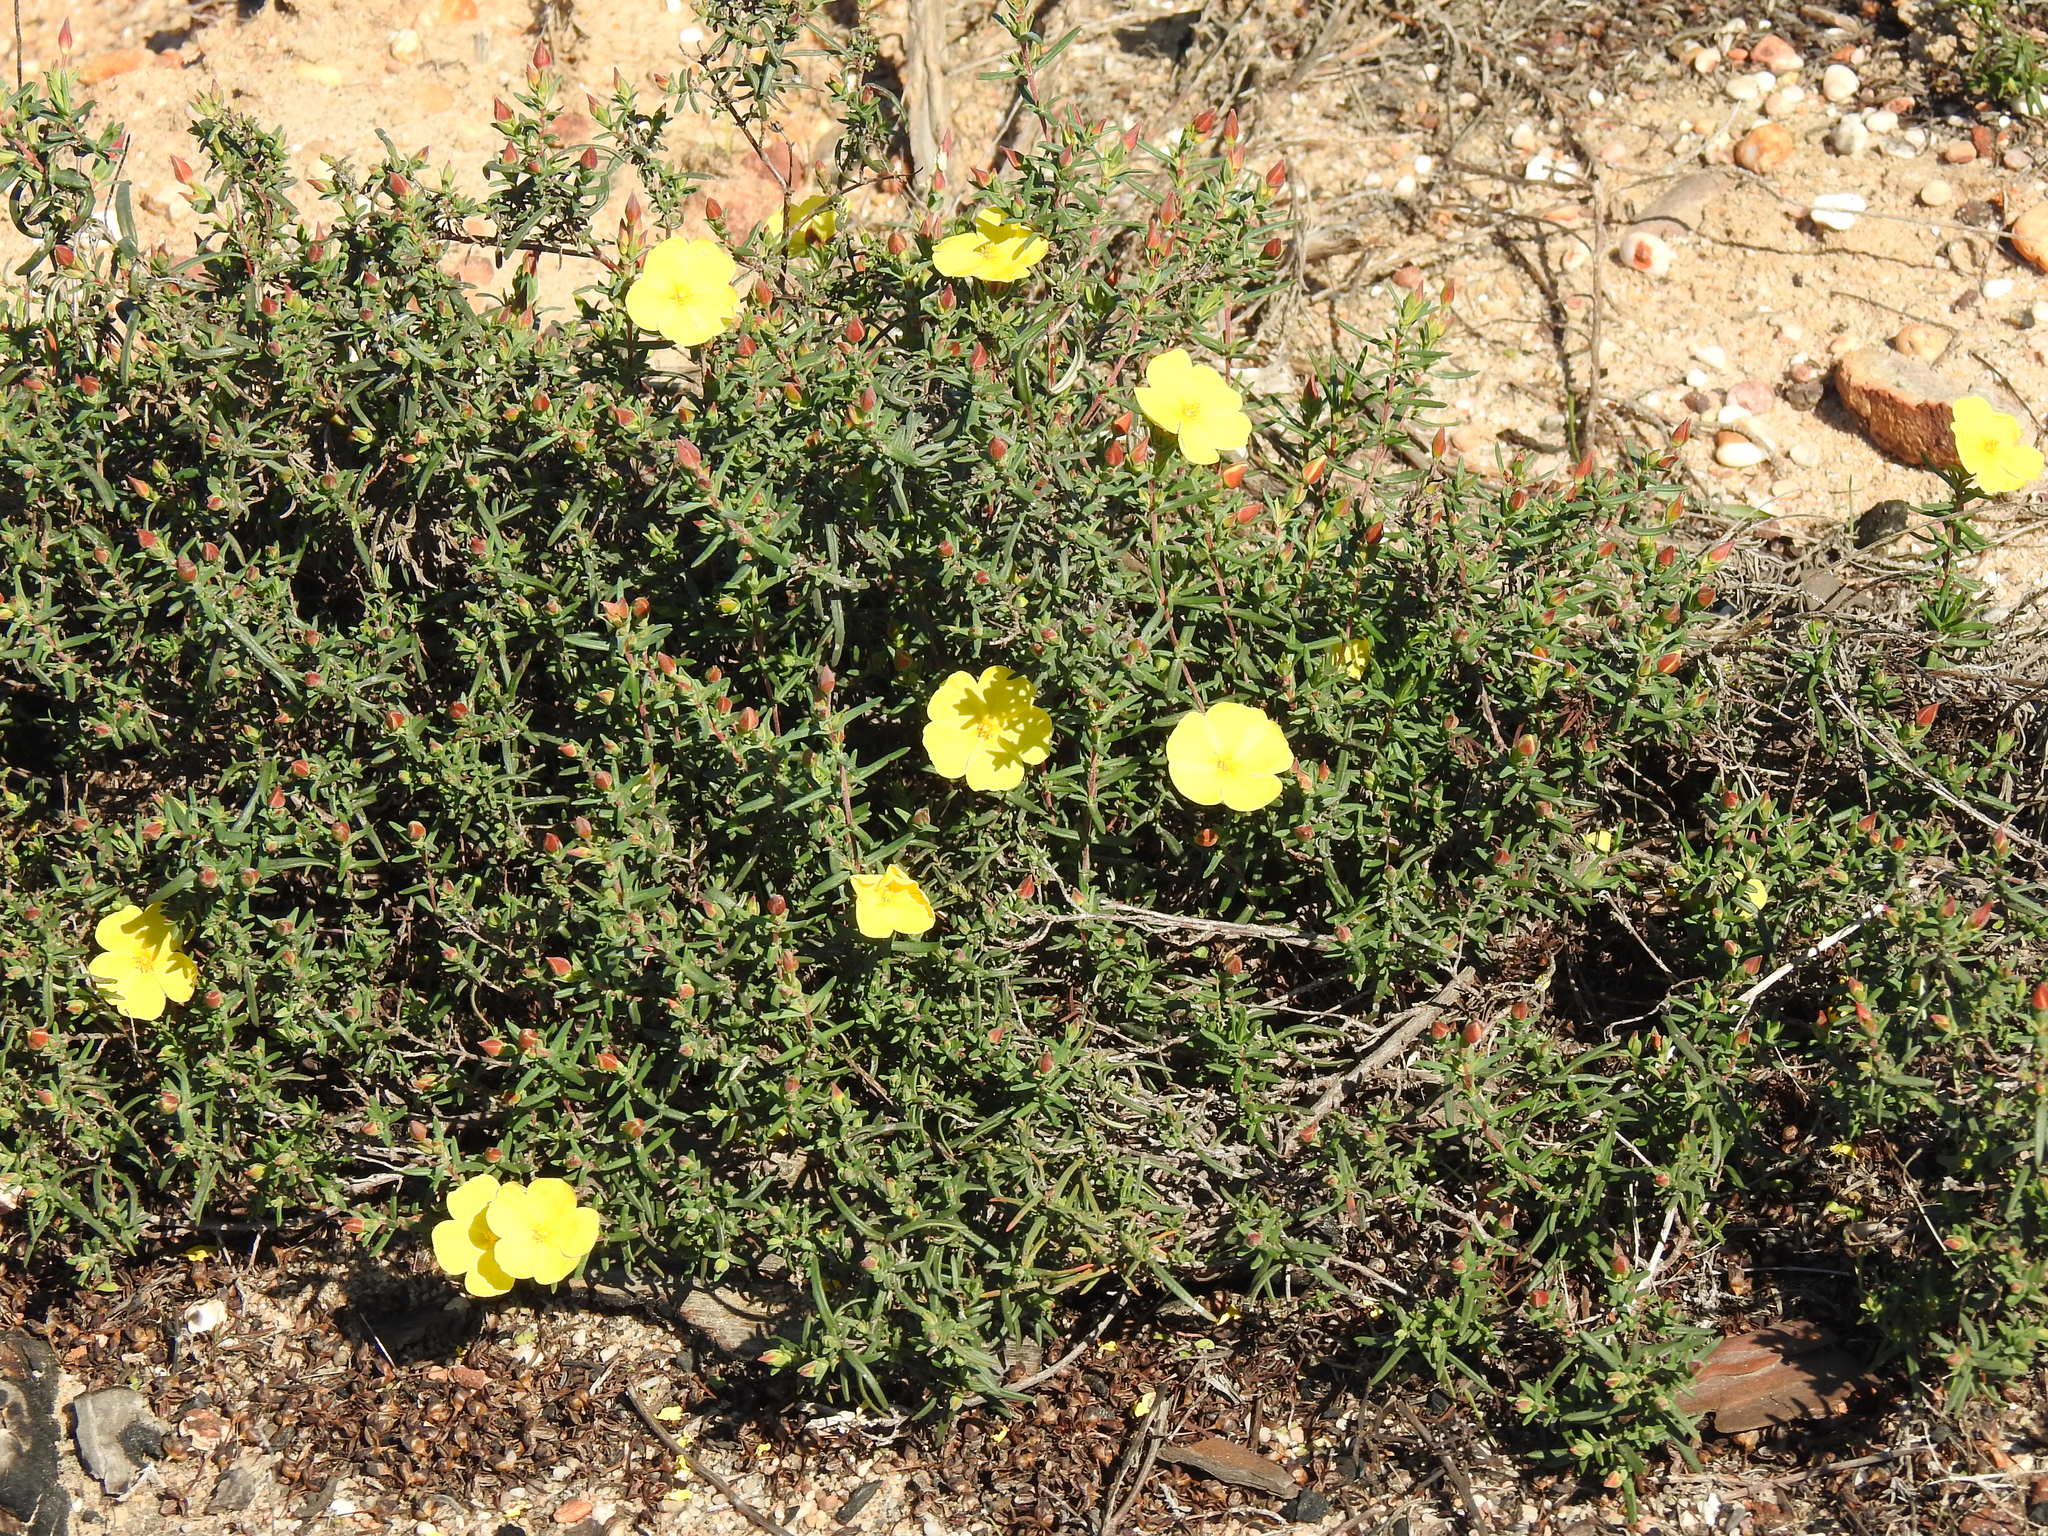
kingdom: Plantae
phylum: Tracheophyta
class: Magnoliopsida
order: Malvales
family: Cistaceae
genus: Halimium
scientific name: Halimium calycinum
